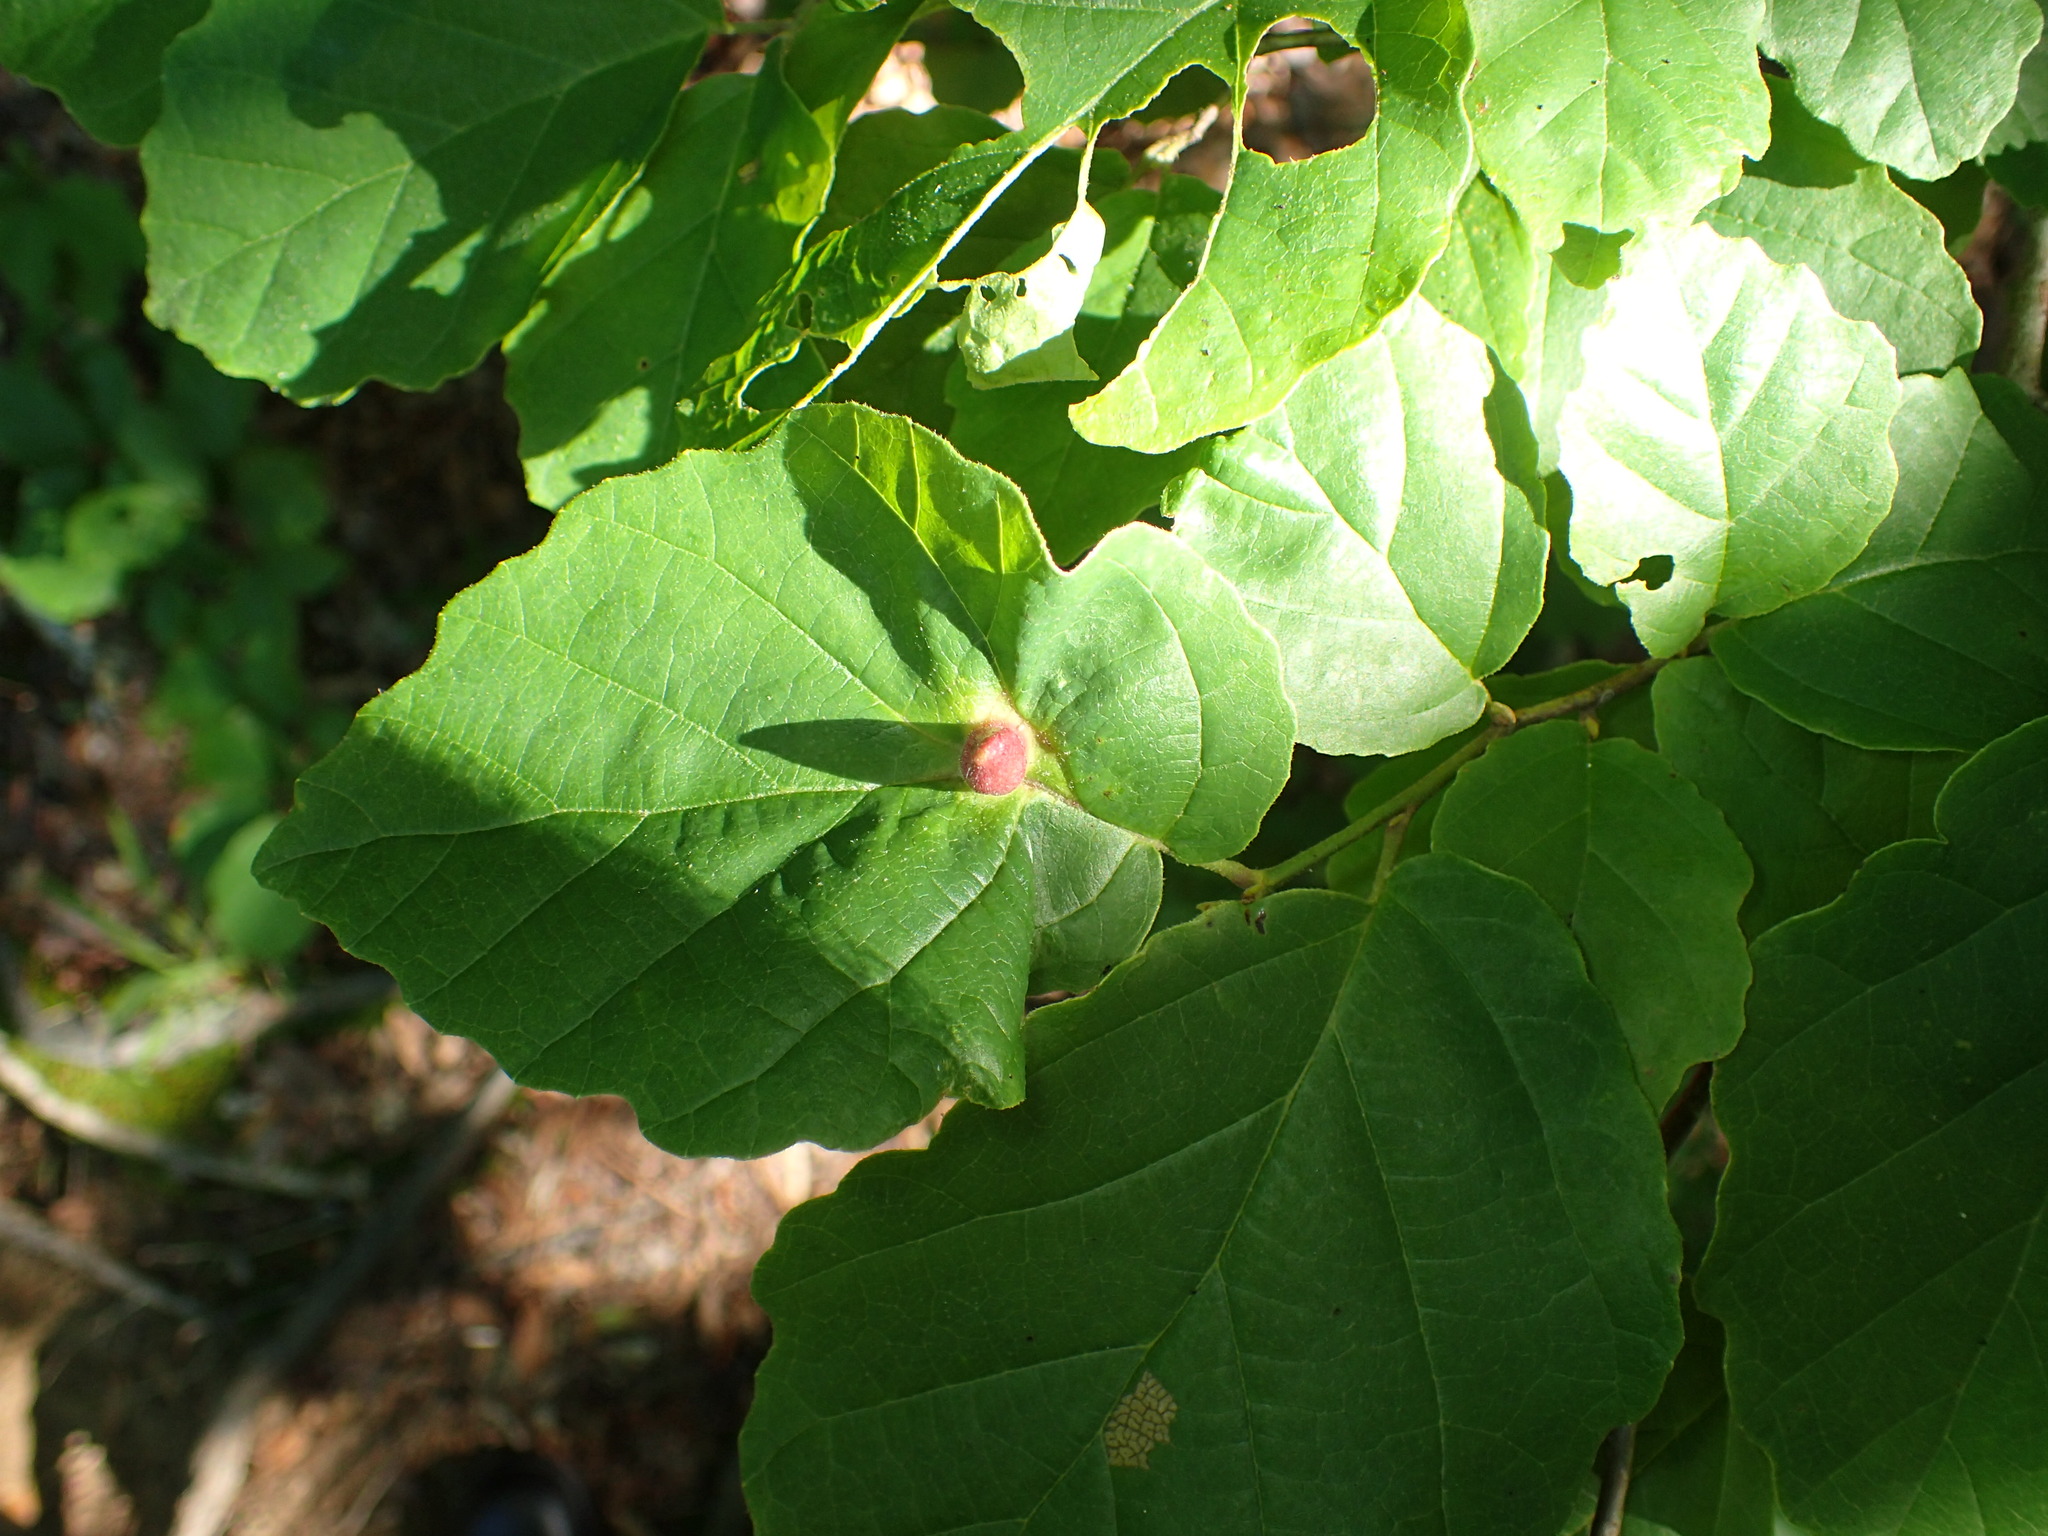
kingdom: Animalia
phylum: Arthropoda
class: Insecta
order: Hemiptera
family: Aphididae
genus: Hormaphis
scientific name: Hormaphis hamamelidis
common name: Witch-hazel cone gall aphid
